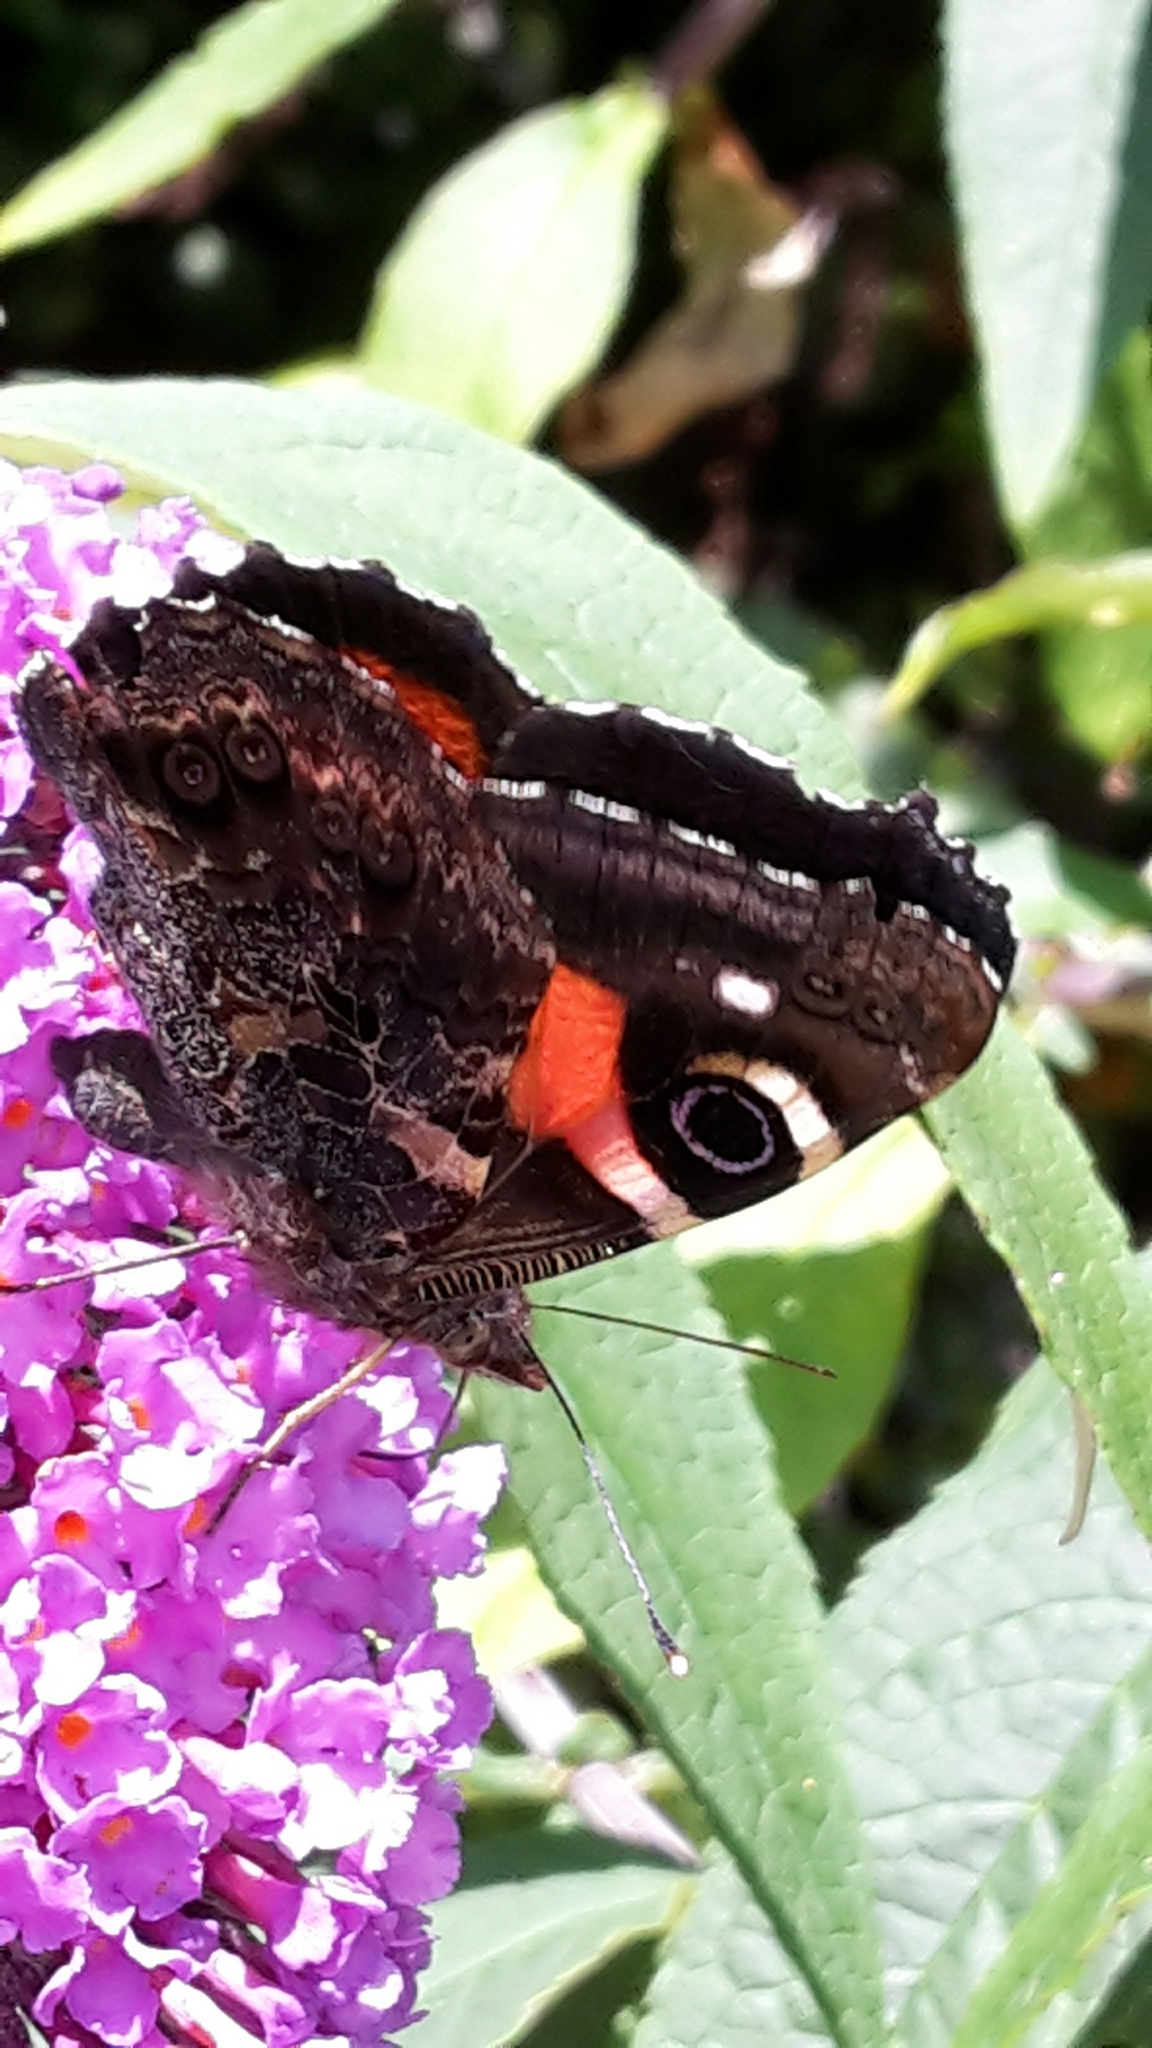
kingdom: Animalia
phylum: Arthropoda
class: Insecta
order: Lepidoptera
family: Nymphalidae
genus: Vanessa
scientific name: Vanessa gonerilla
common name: New zealand red admiral
